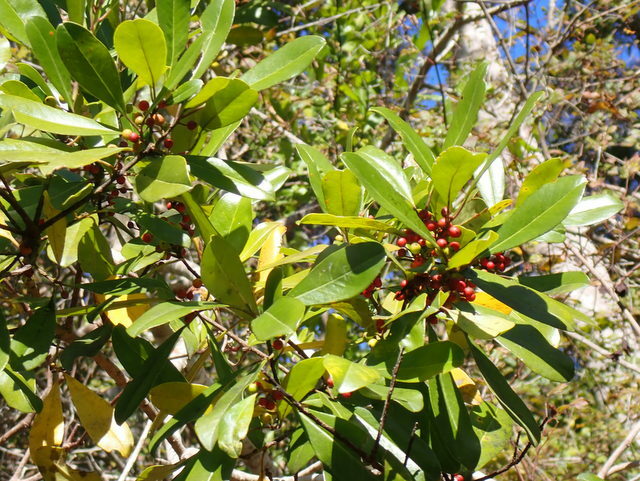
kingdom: Plantae
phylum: Tracheophyta
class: Magnoliopsida
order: Aquifoliales
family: Aquifoliaceae
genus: Ilex
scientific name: Ilex cassine
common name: Dahoon
